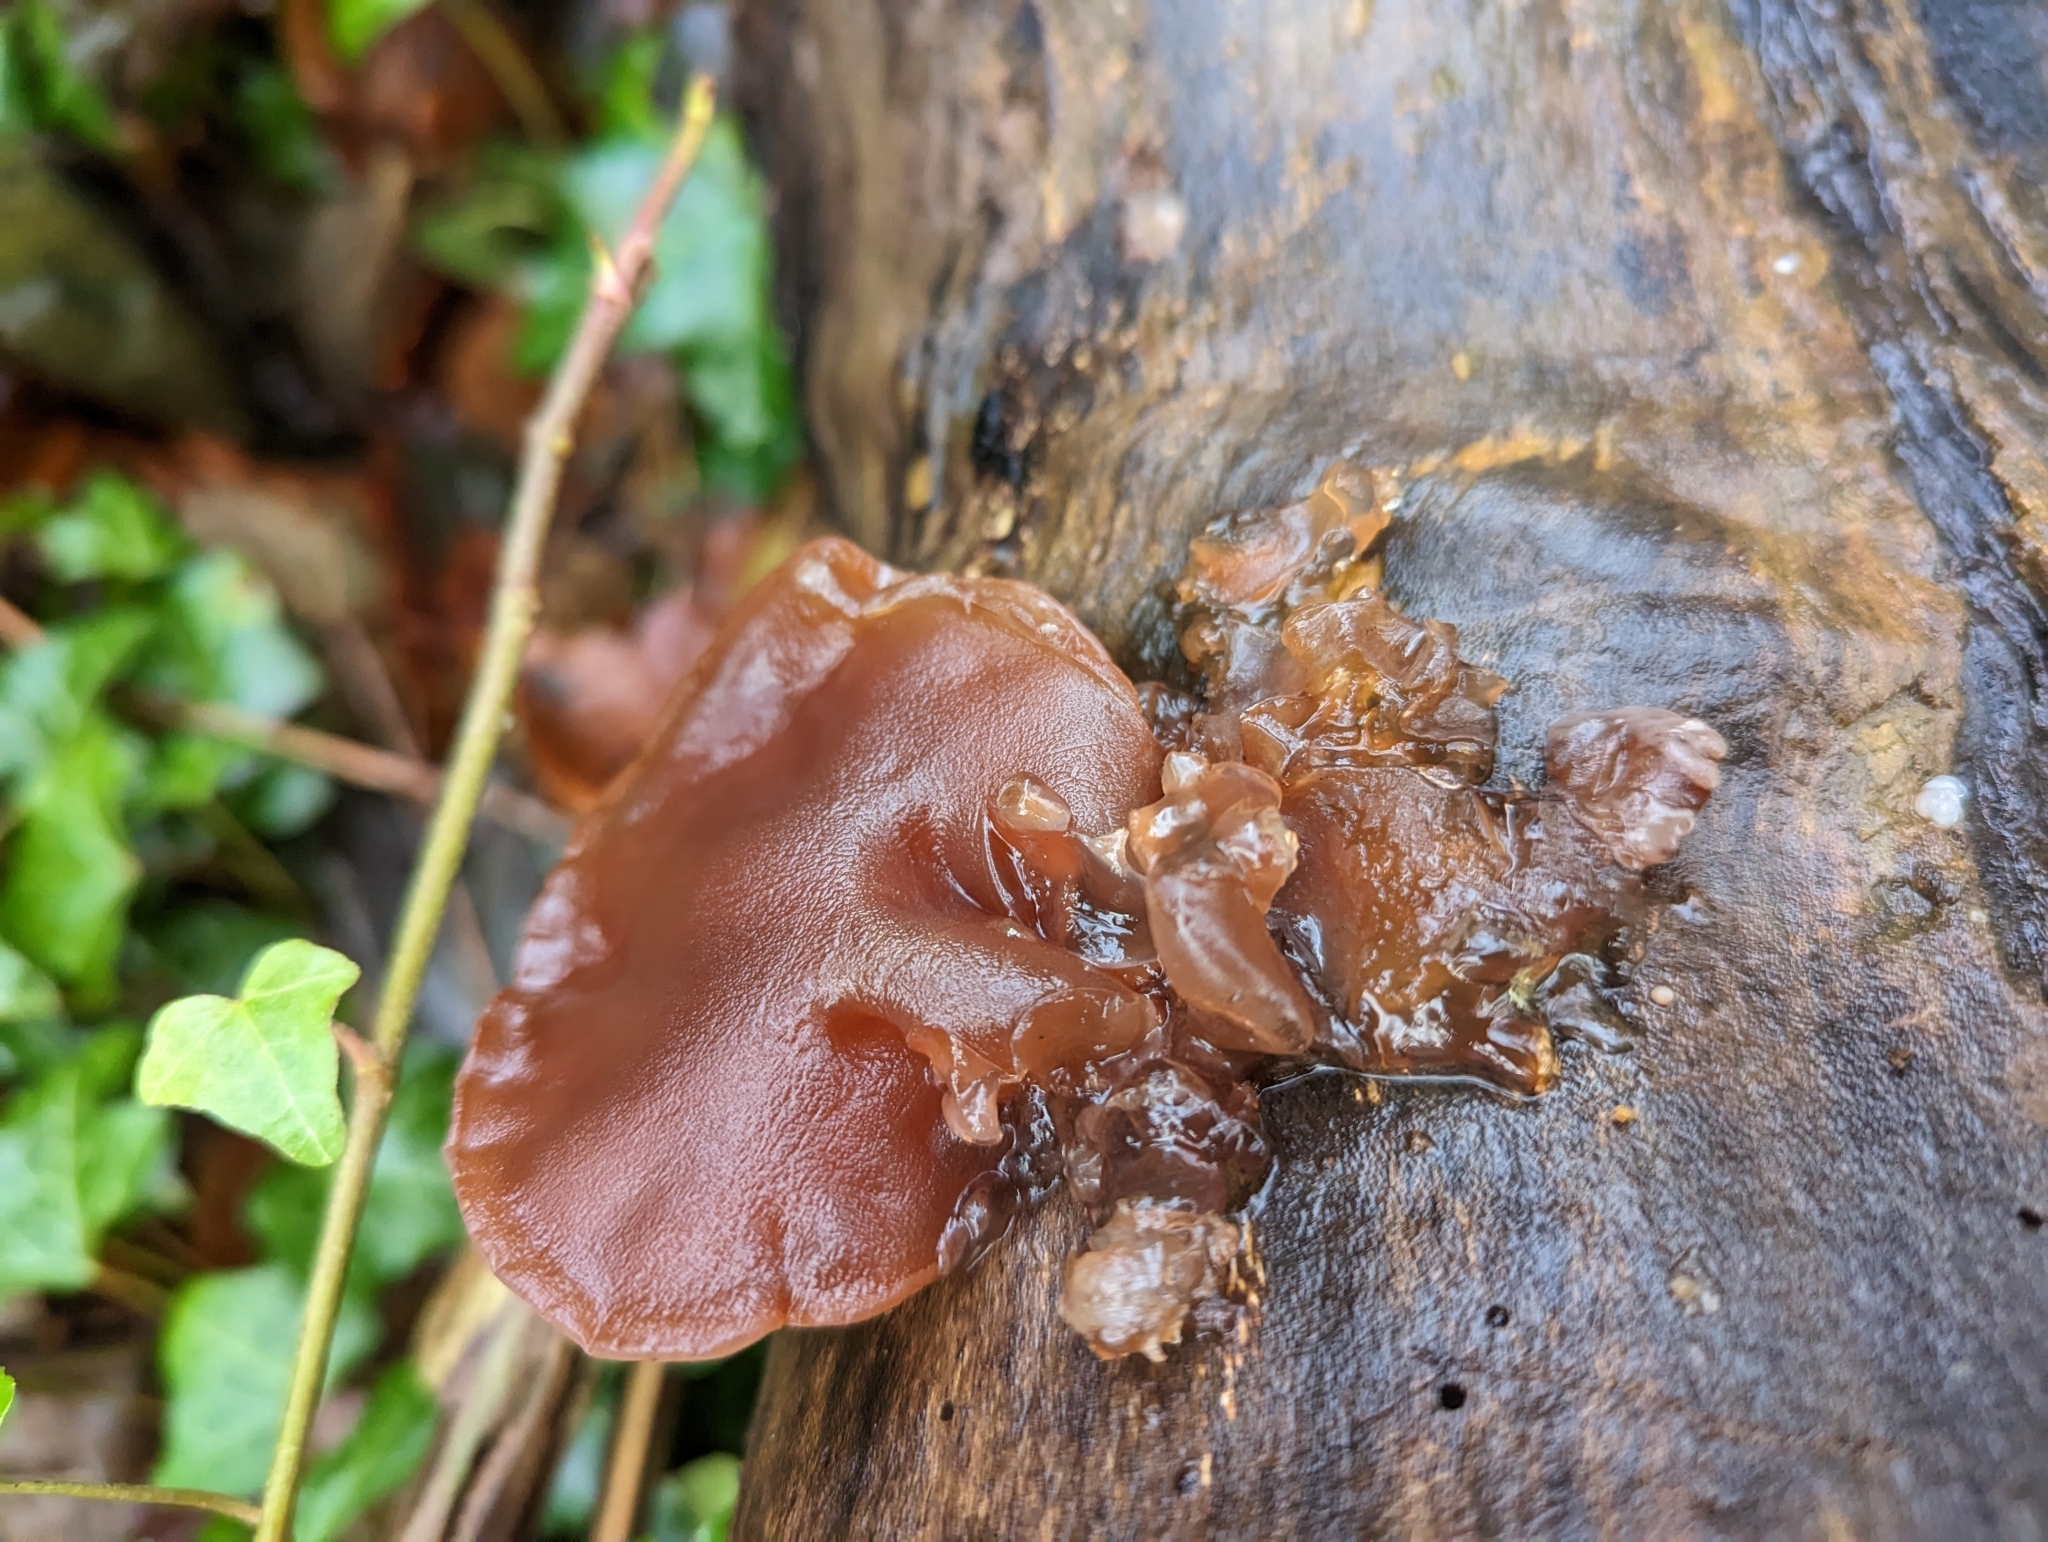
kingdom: Fungi
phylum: Basidiomycota
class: Agaricomycetes
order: Auriculariales
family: Auriculariaceae
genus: Auricularia
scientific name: Auricularia auricula-judae
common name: Jelly ear
